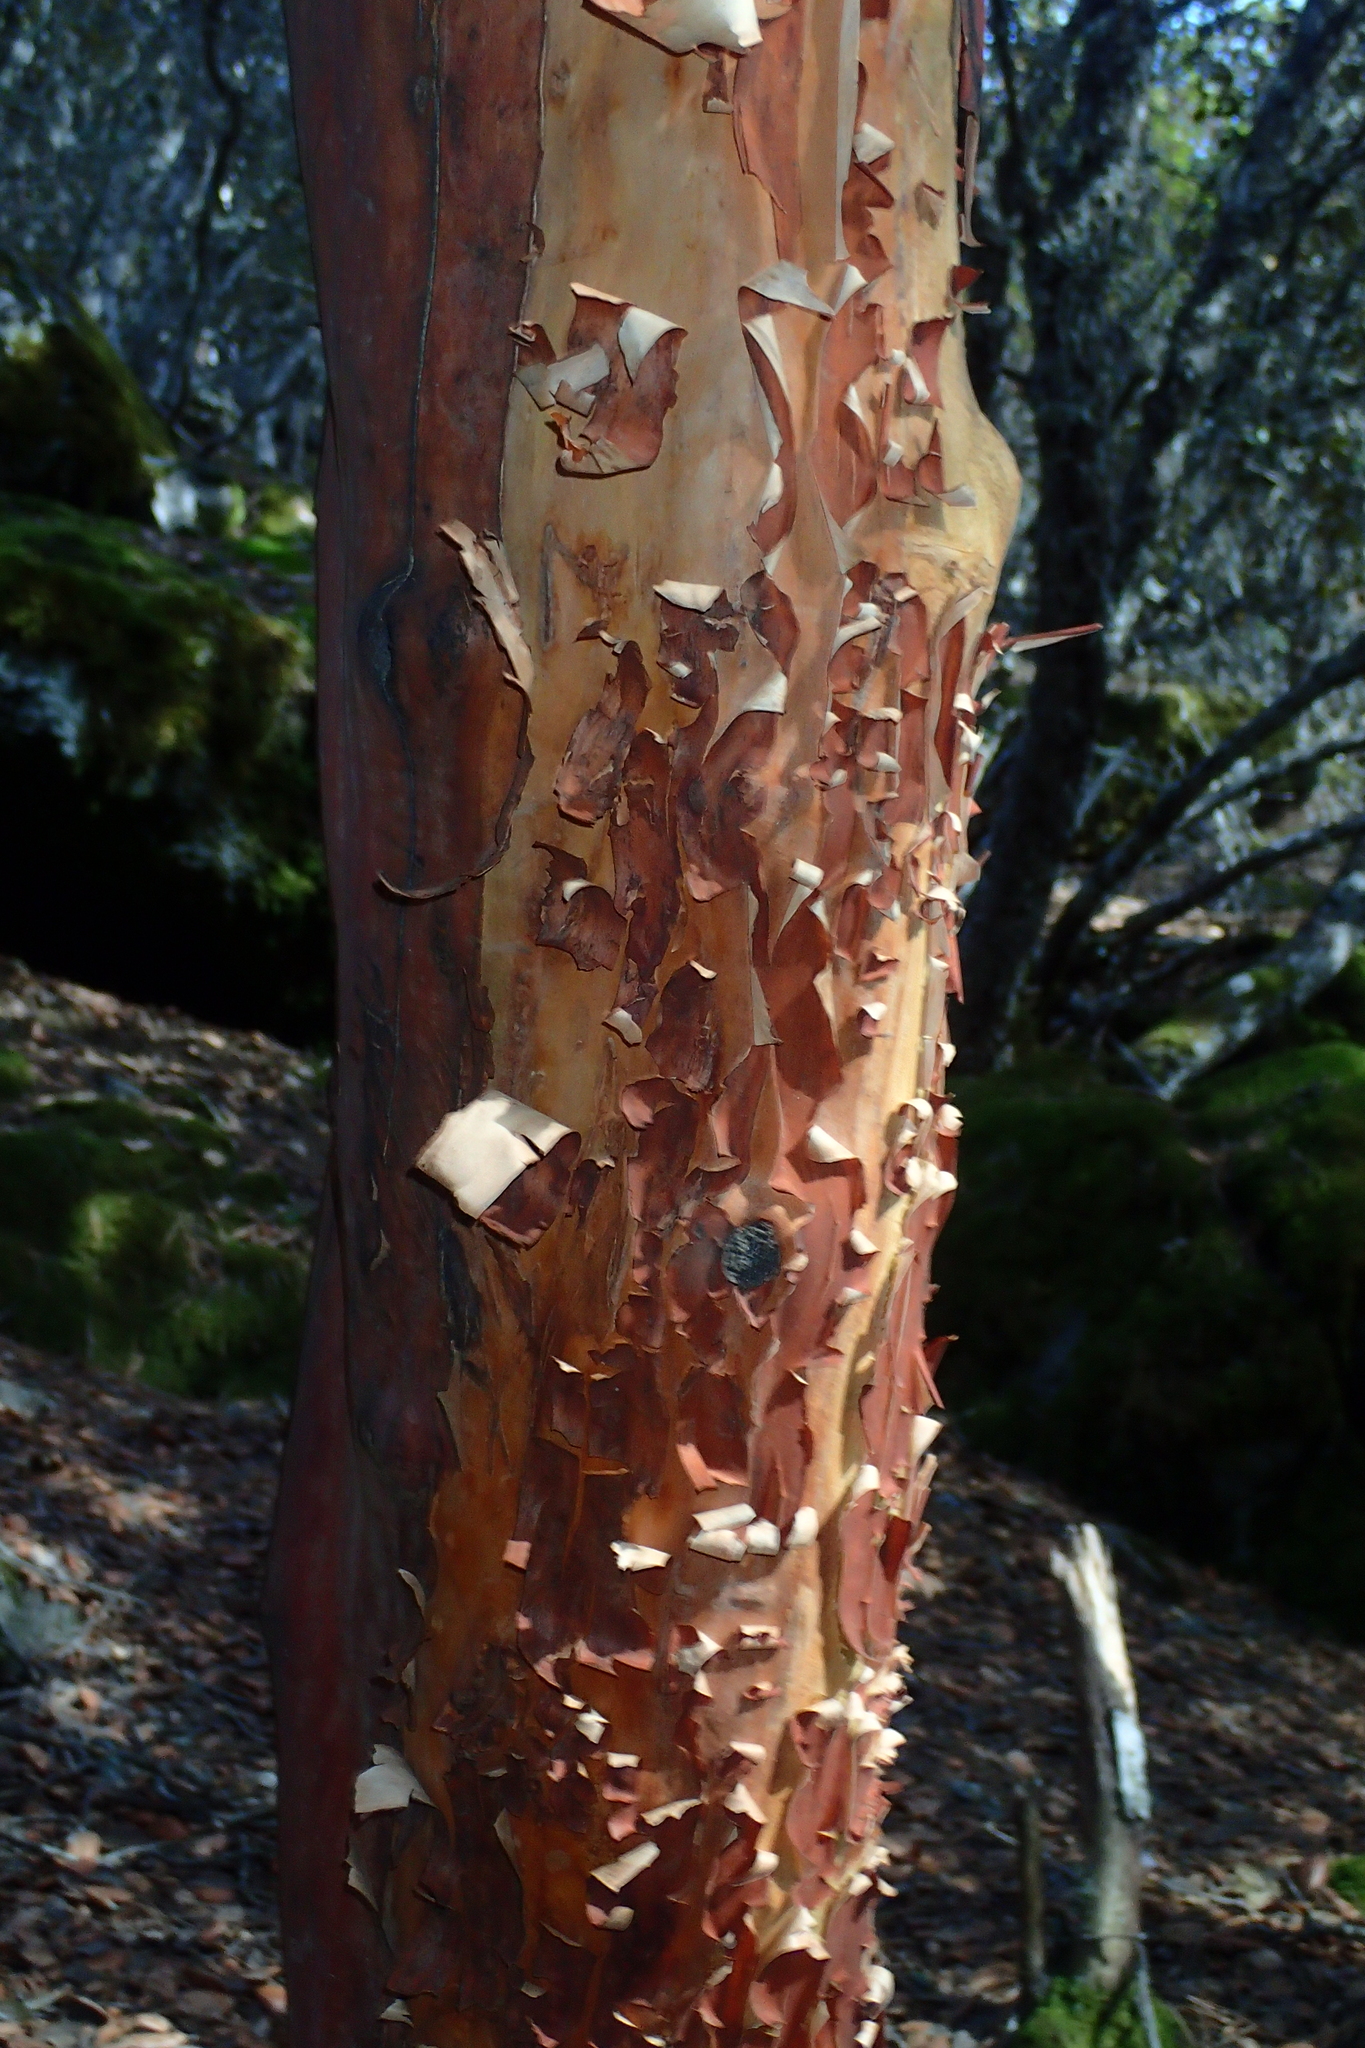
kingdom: Plantae
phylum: Tracheophyta
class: Magnoliopsida
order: Ericales
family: Ericaceae
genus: Arbutus
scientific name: Arbutus andrachne
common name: Greek strawberry tree
